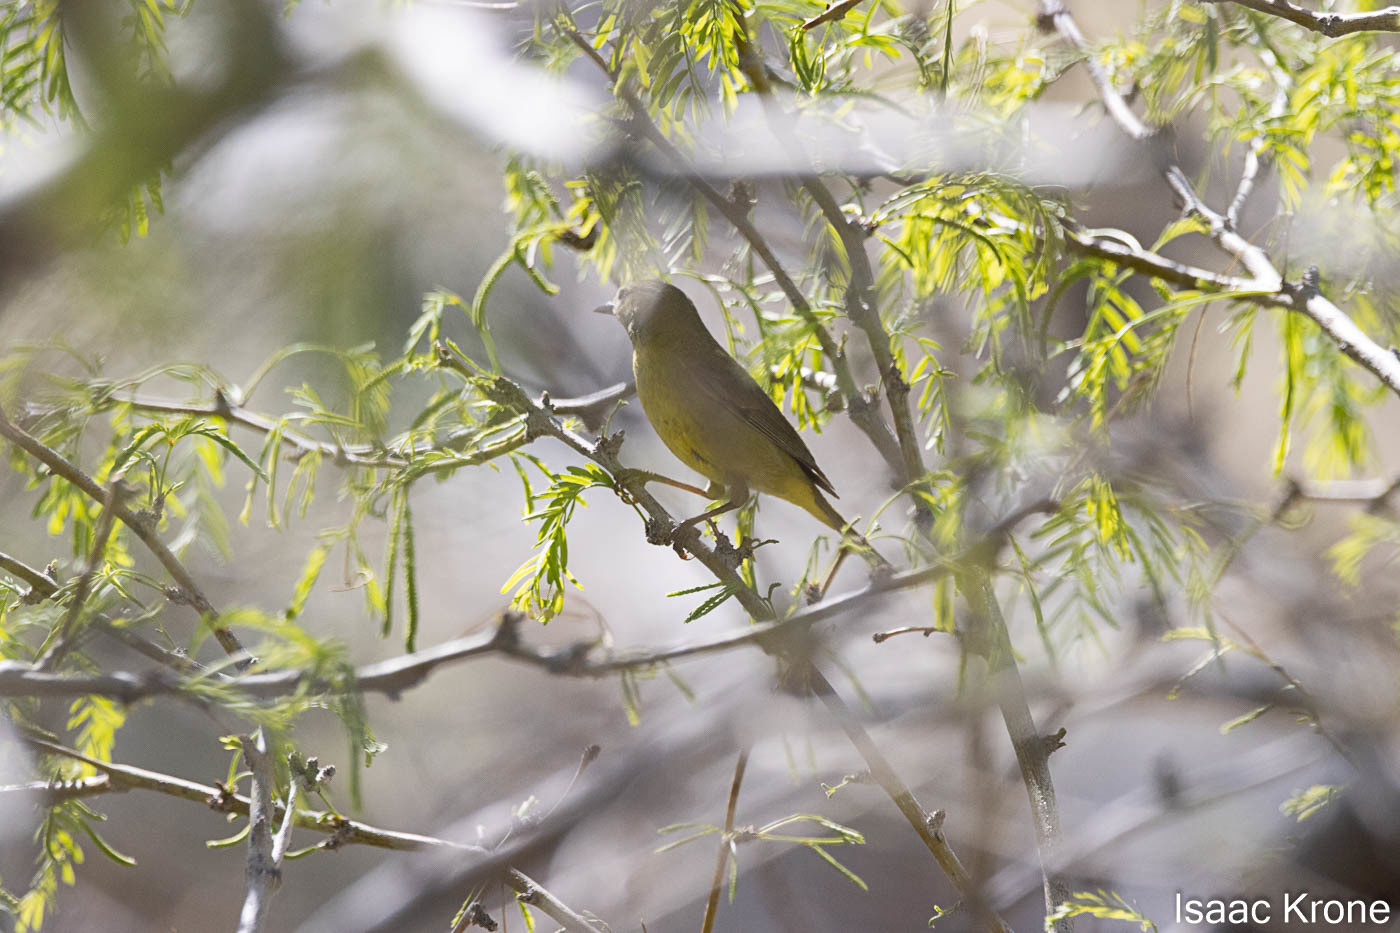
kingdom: Animalia
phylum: Chordata
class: Aves
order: Passeriformes
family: Parulidae
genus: Leiothlypis
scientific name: Leiothlypis celata
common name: Orange-crowned warbler
